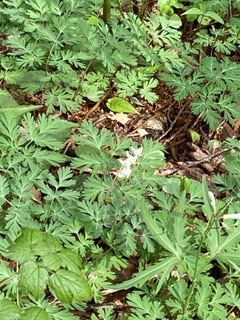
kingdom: Plantae
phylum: Tracheophyta
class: Magnoliopsida
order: Ranunculales
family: Papaveraceae
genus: Dicentra
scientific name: Dicentra cucullaria
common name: Dutchman's breeches
